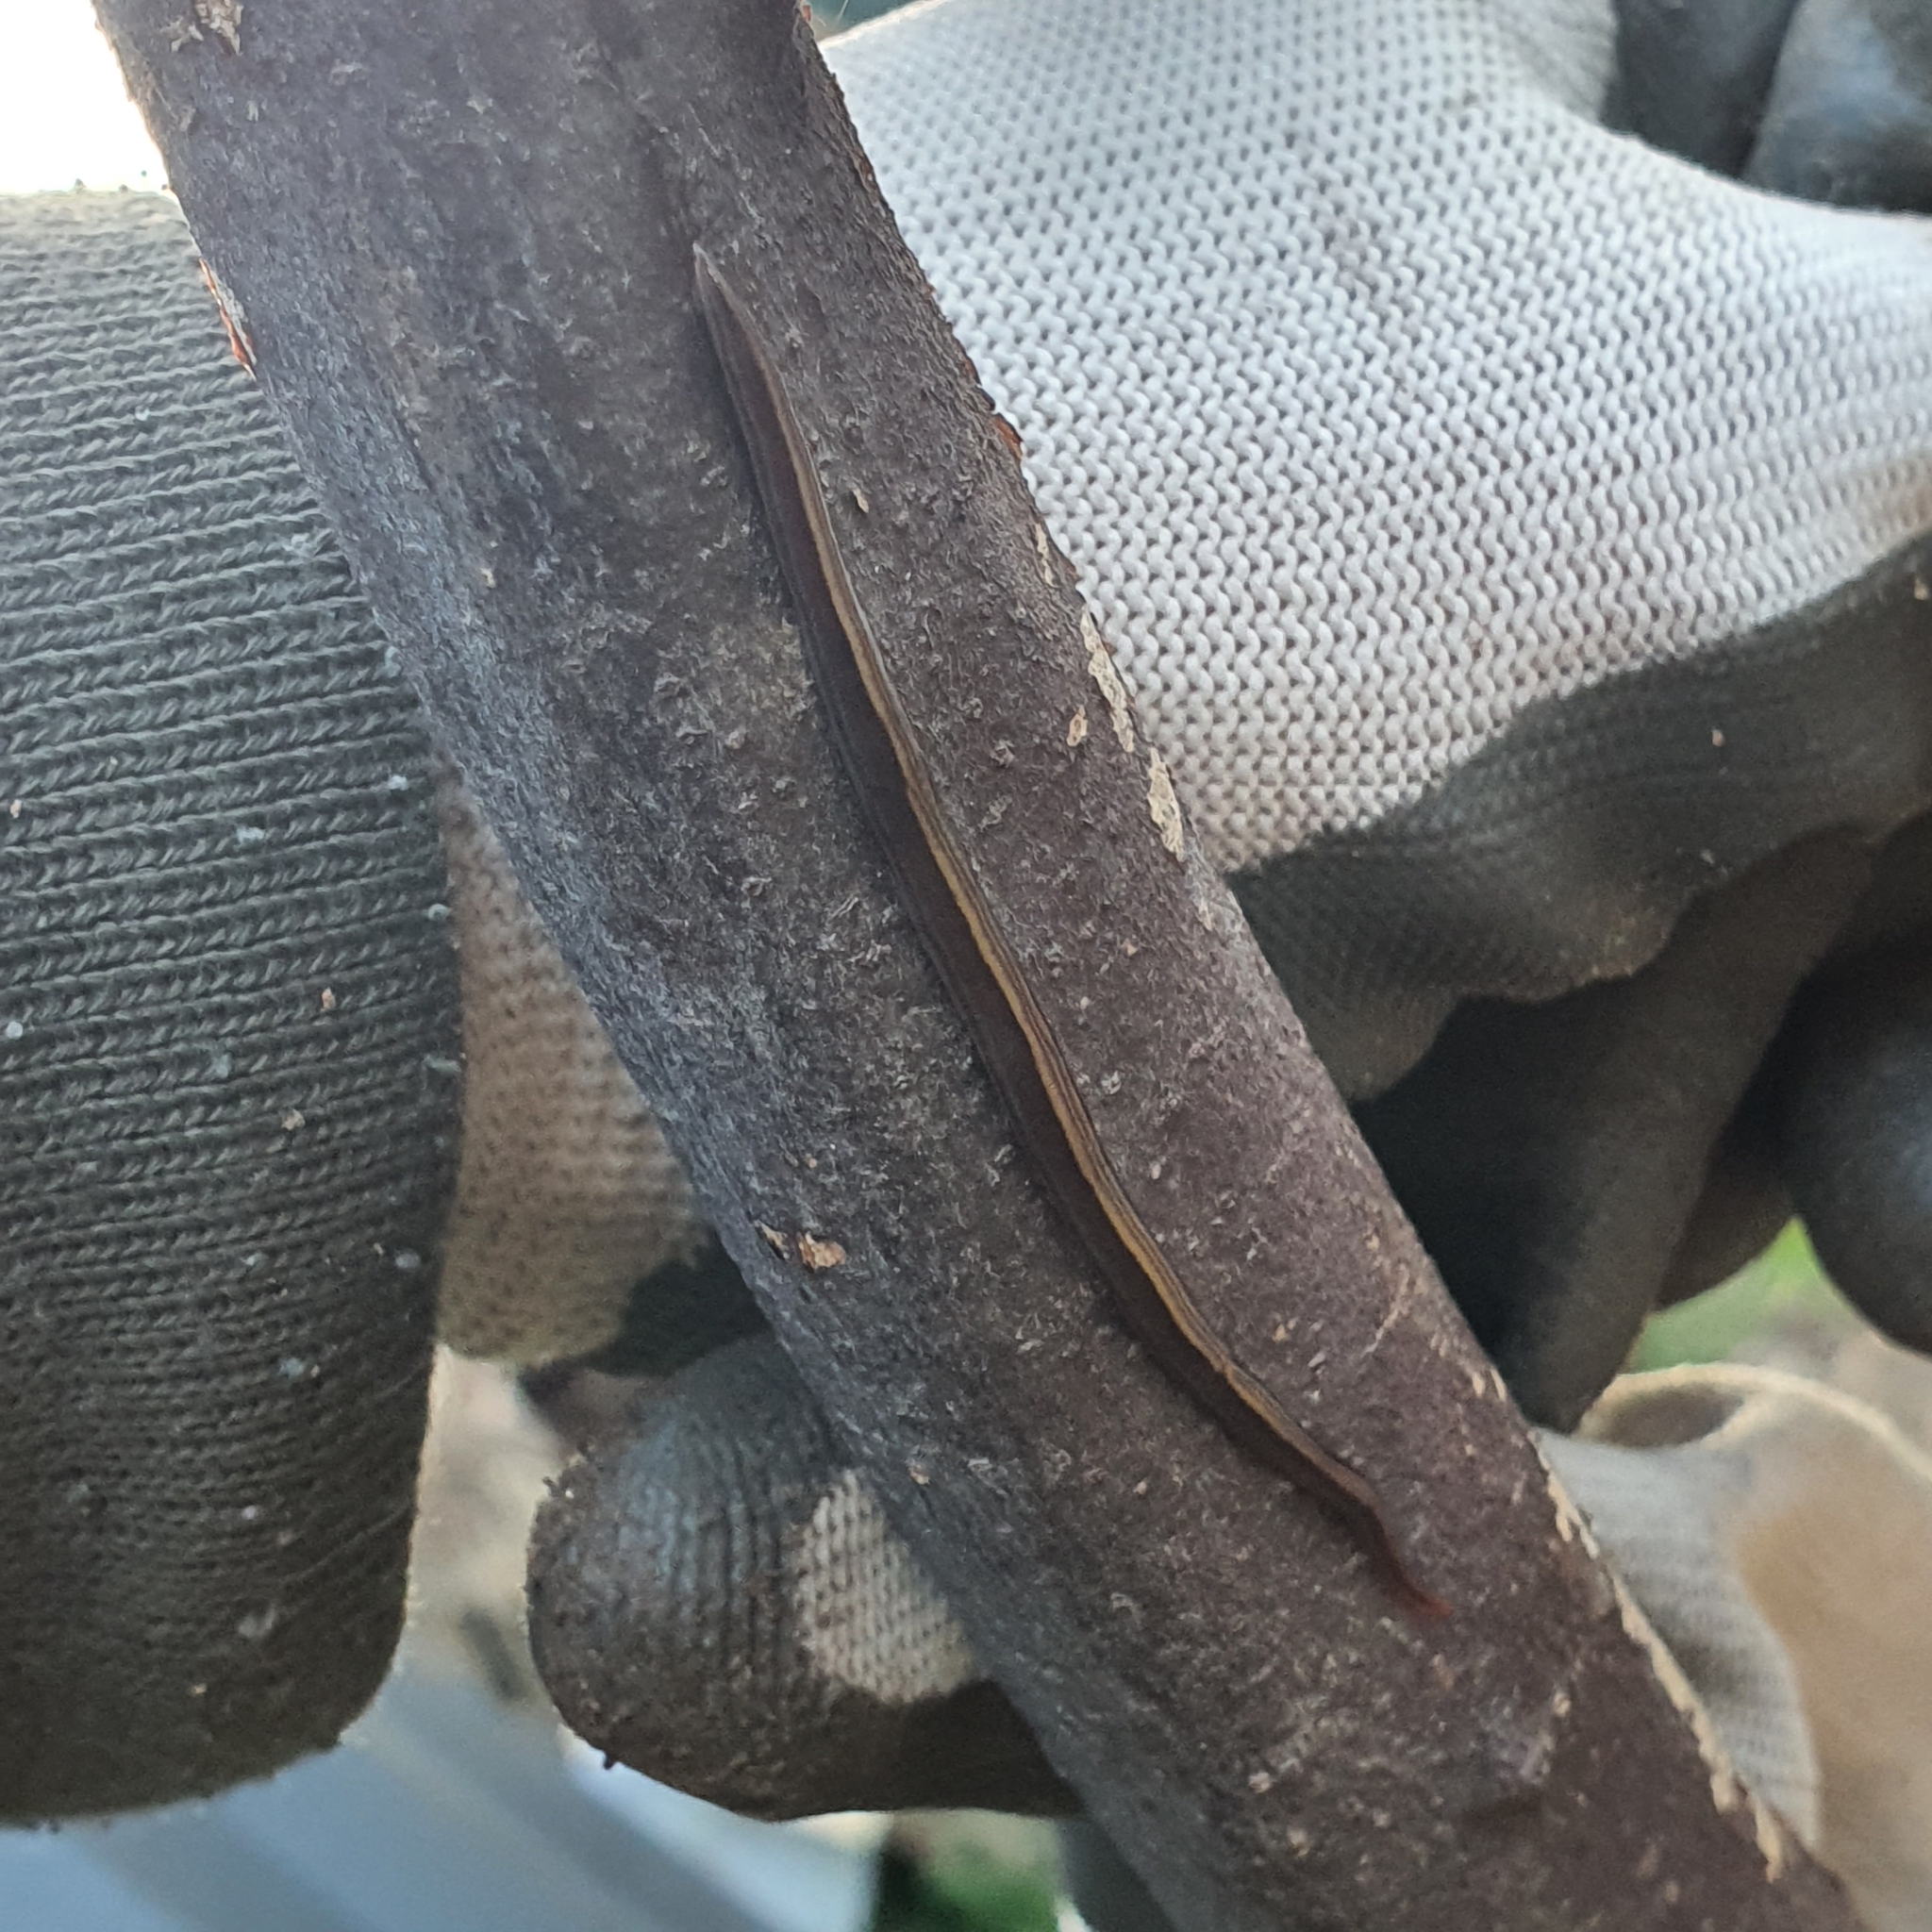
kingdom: Animalia
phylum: Platyhelminthes
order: Tricladida
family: Geoplanidae
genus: Caenoplana
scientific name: Caenoplana variegata
